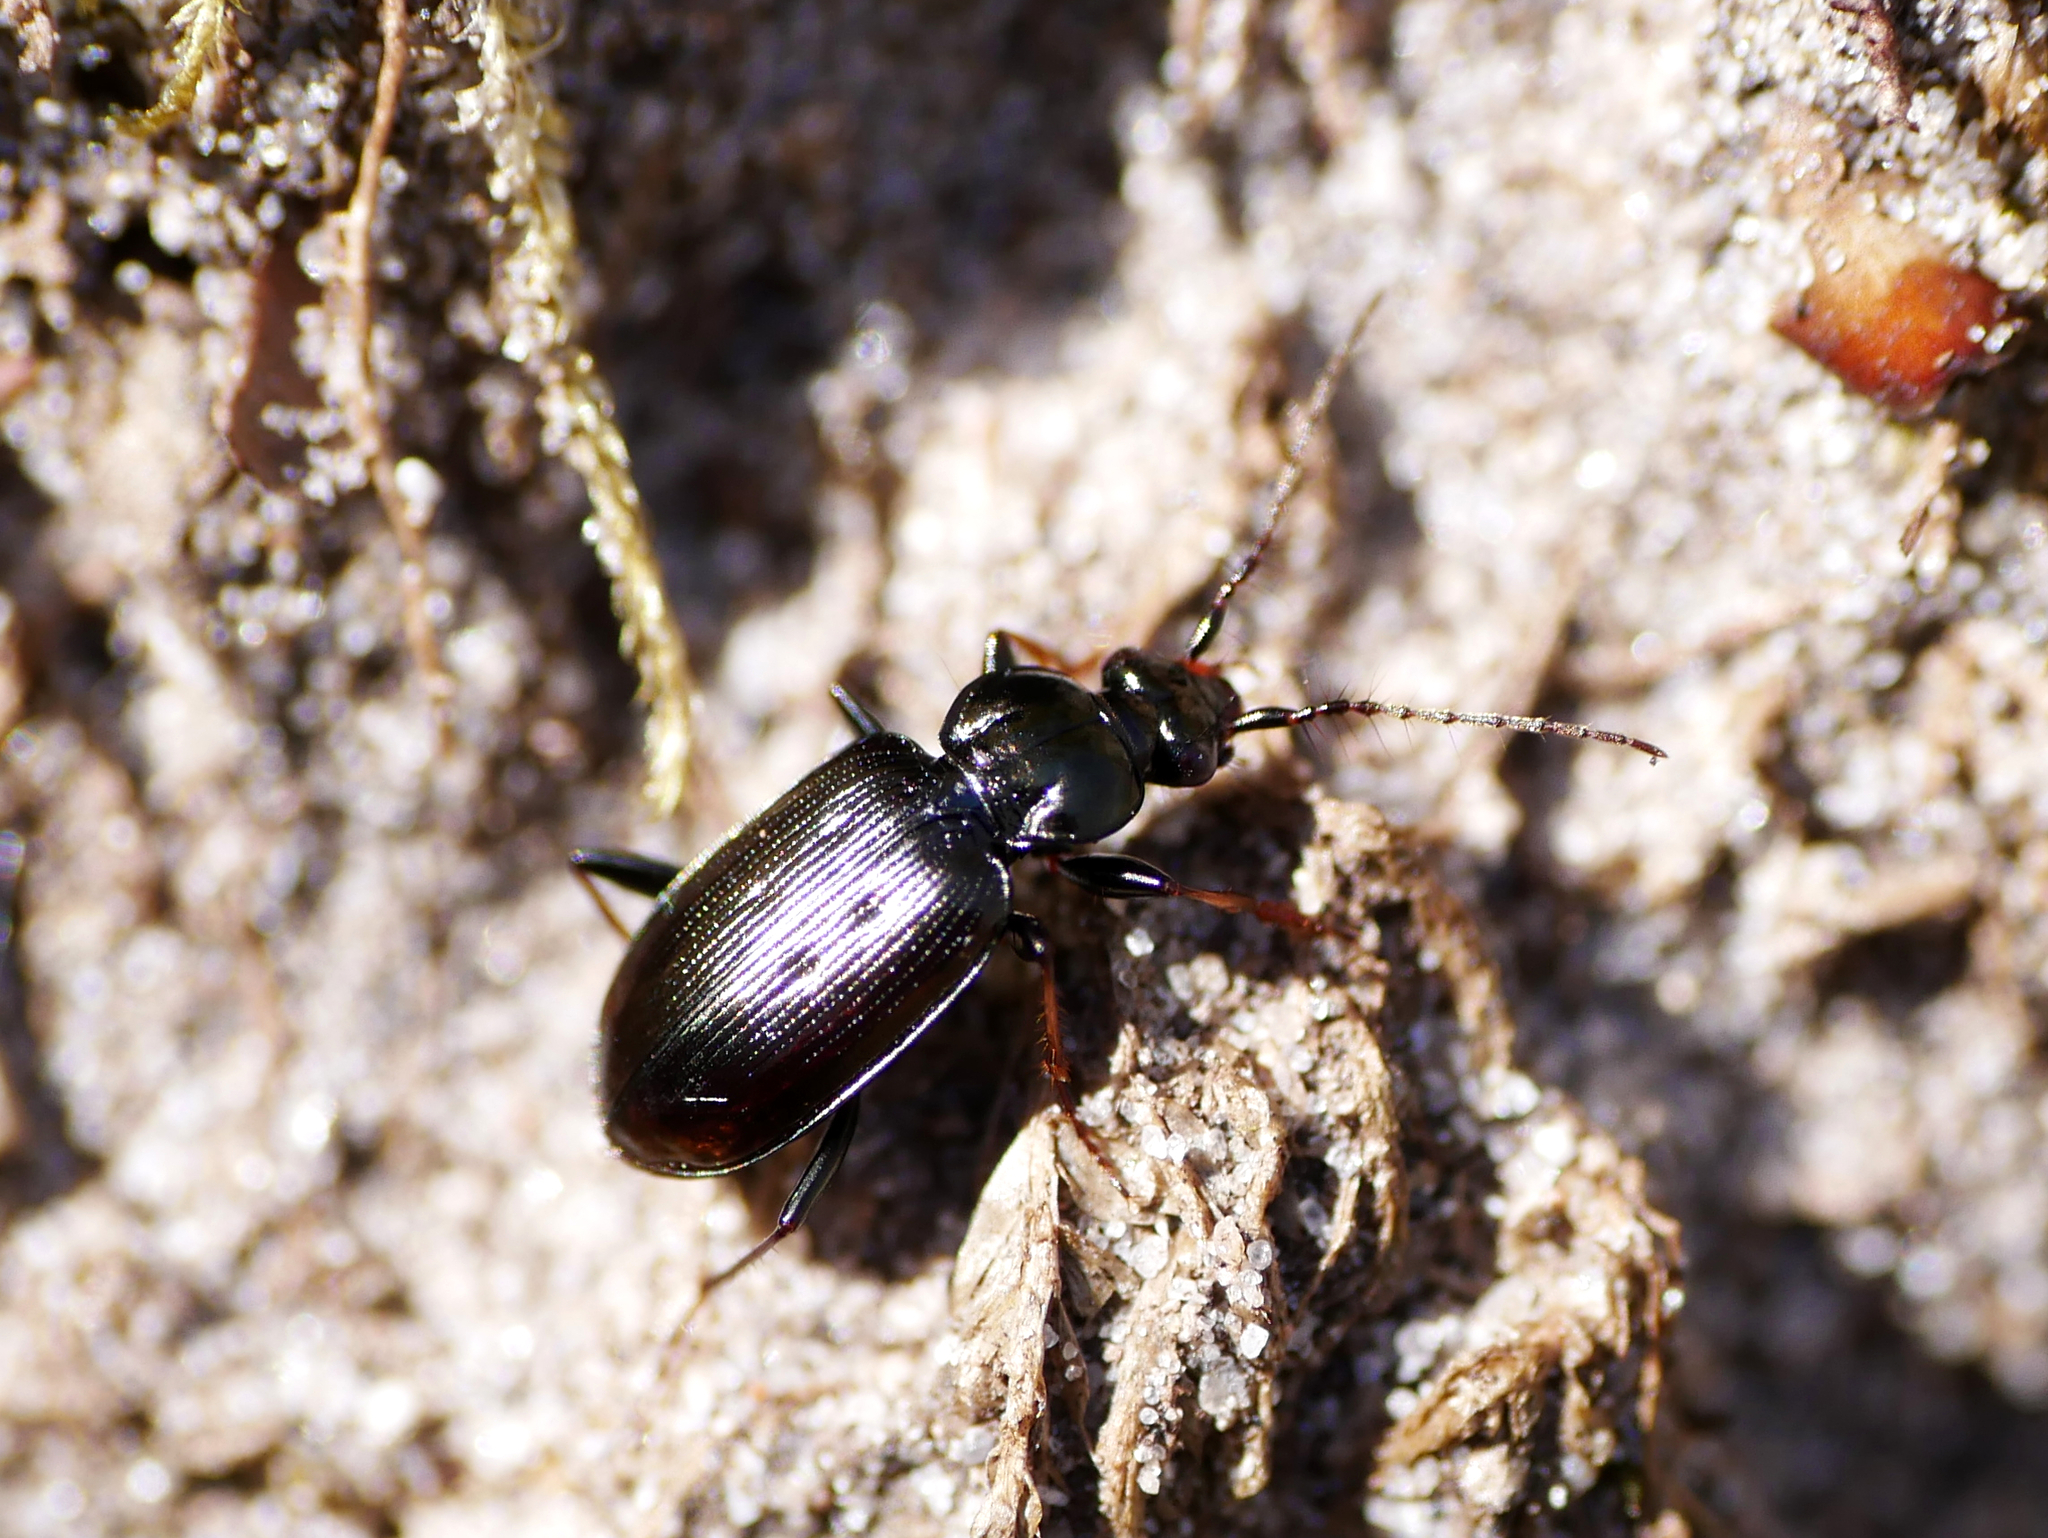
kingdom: Animalia
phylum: Arthropoda
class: Insecta
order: Coleoptera
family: Carabidae
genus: Loricera
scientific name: Loricera pilicornis
